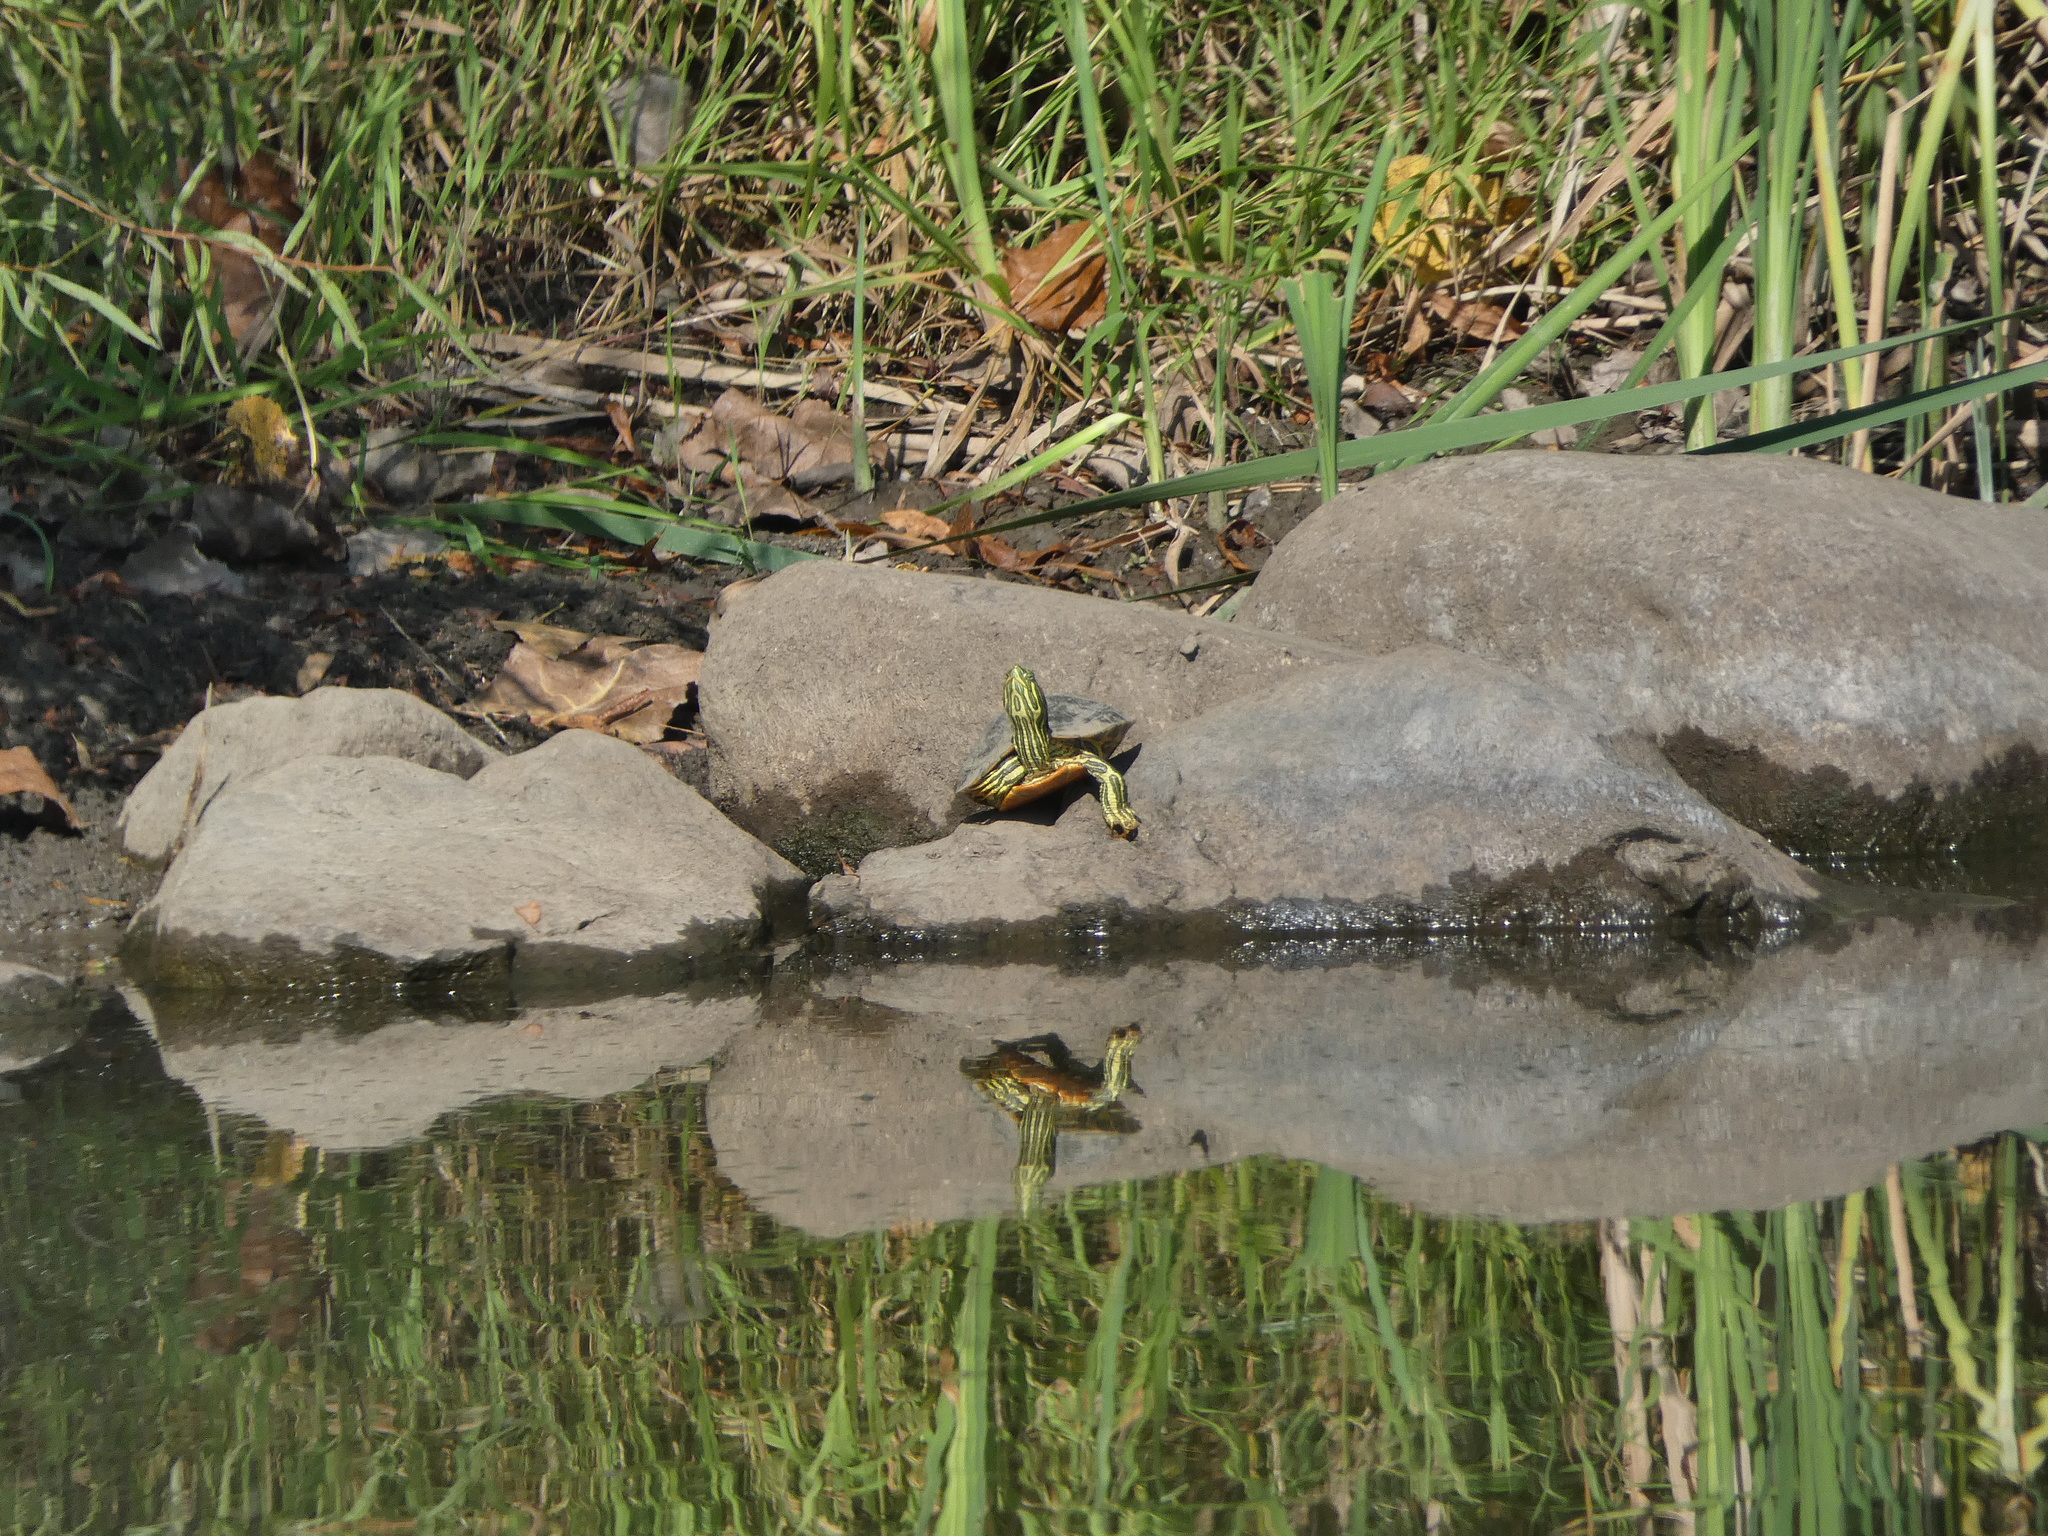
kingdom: Animalia
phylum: Chordata
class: Testudines
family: Emydidae
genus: Graptemys
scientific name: Graptemys geographica
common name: Common map turtle
